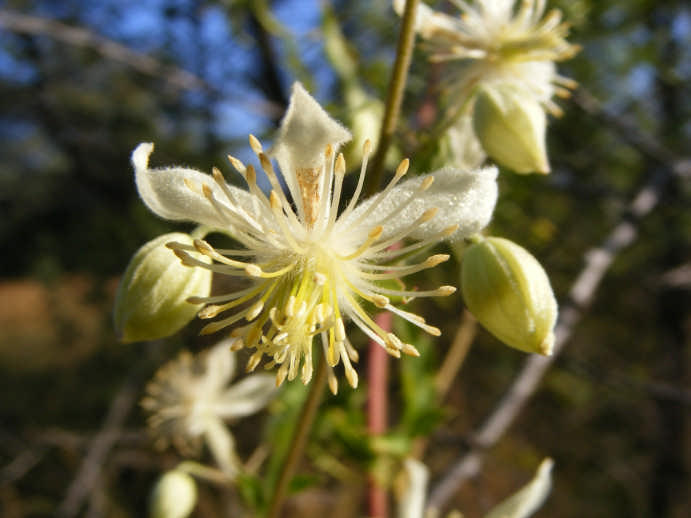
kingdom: Plantae
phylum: Tracheophyta
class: Magnoliopsida
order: Ranunculales
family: Ranunculaceae
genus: Clematis
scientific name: Clematis brachiata
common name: Traveler's-joy
